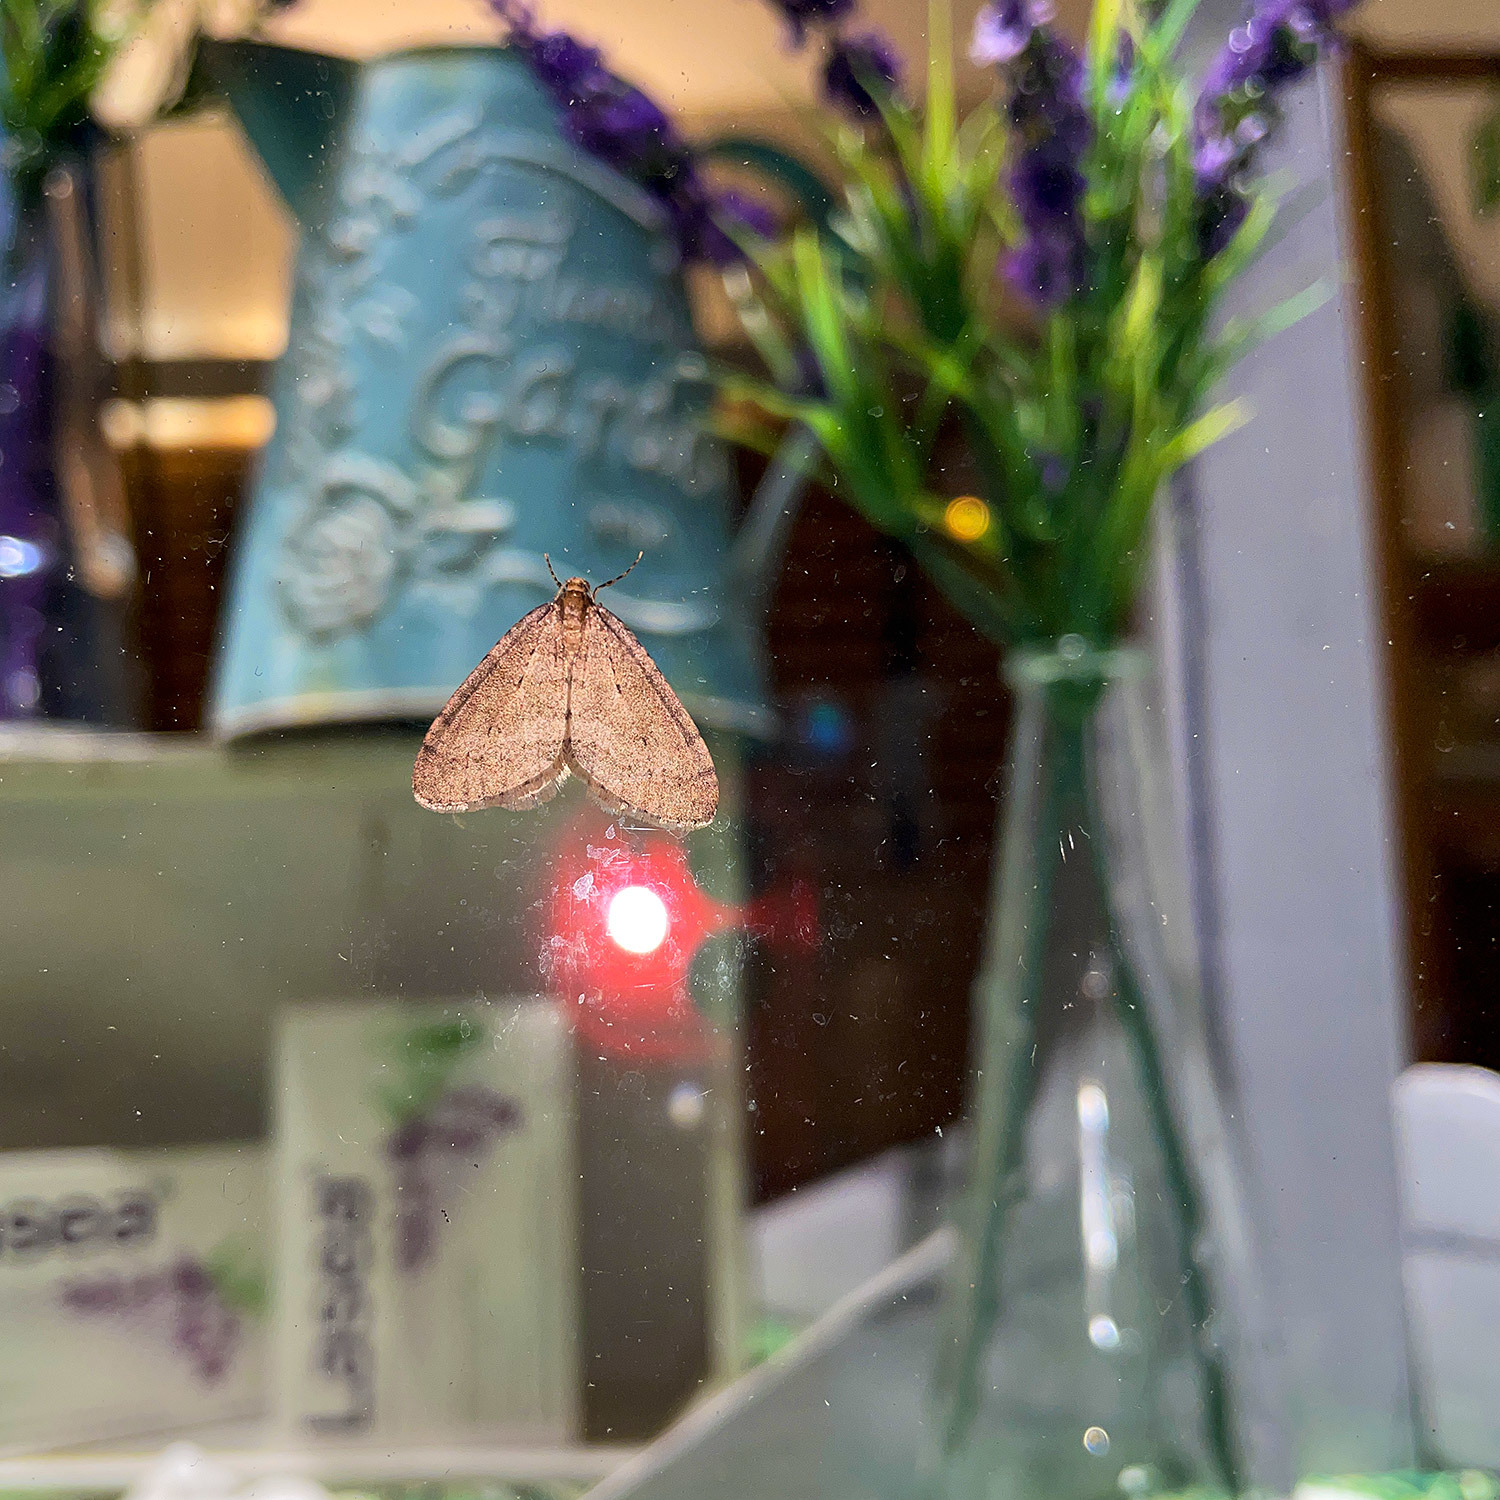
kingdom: Animalia
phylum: Arthropoda
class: Insecta
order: Lepidoptera
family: Geometridae
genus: Operophtera
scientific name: Operophtera brumata
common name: Winter moth
